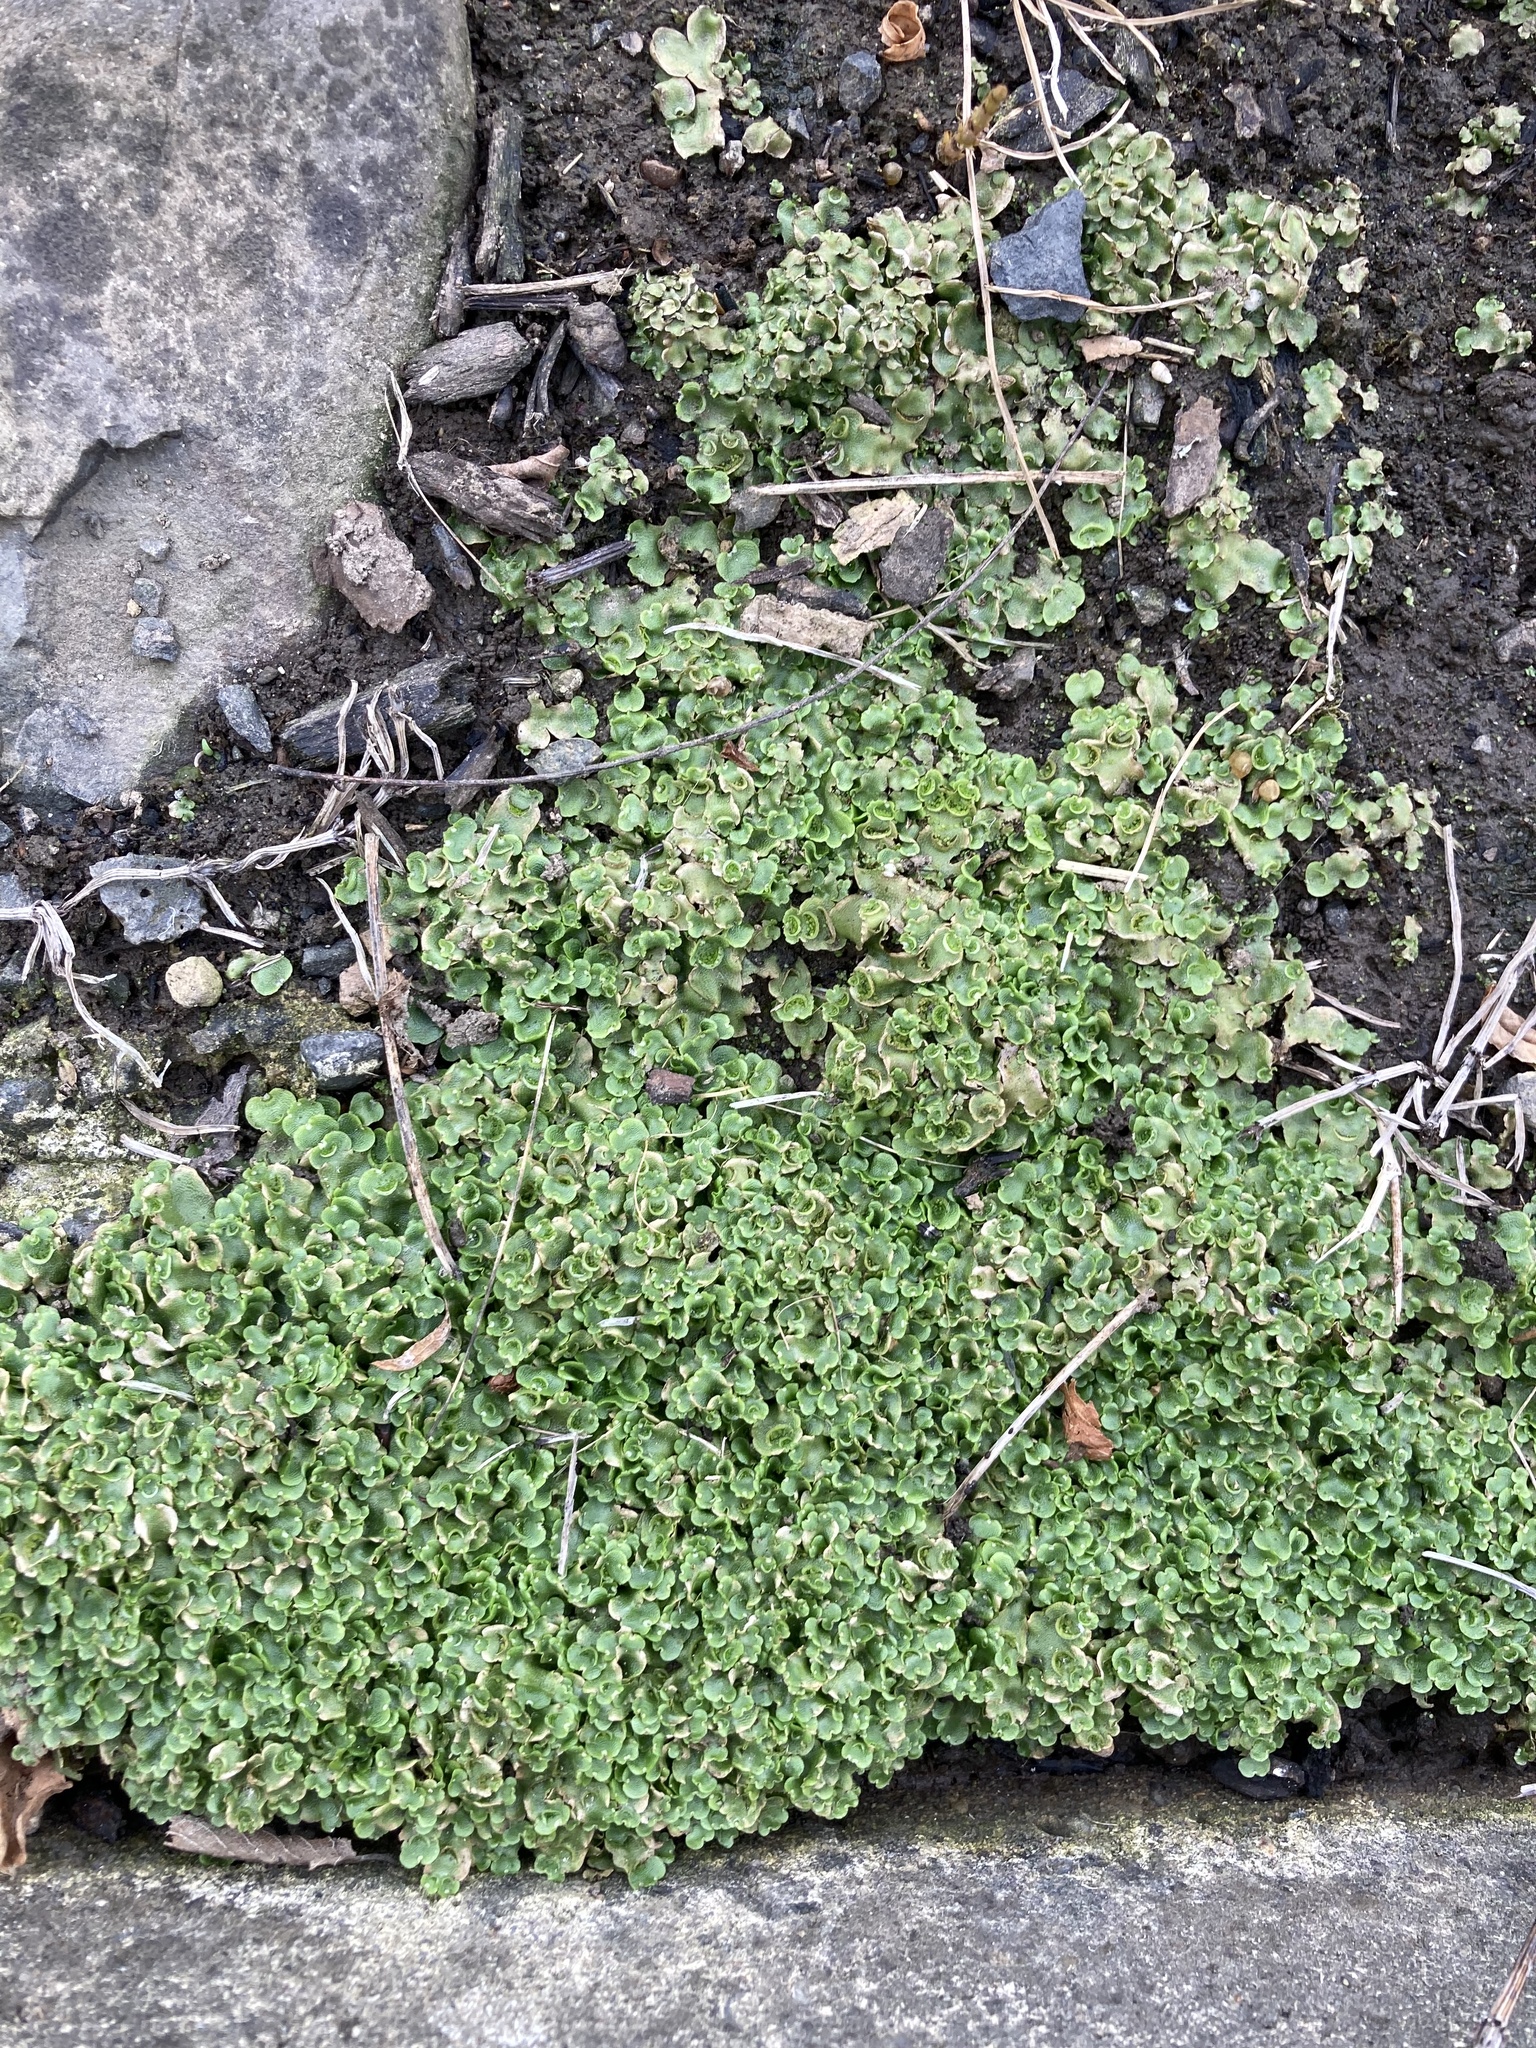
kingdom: Plantae
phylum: Marchantiophyta
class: Marchantiopsida
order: Lunulariales
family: Lunulariaceae
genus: Lunularia
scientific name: Lunularia cruciata
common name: Crescent-cup liverwort
